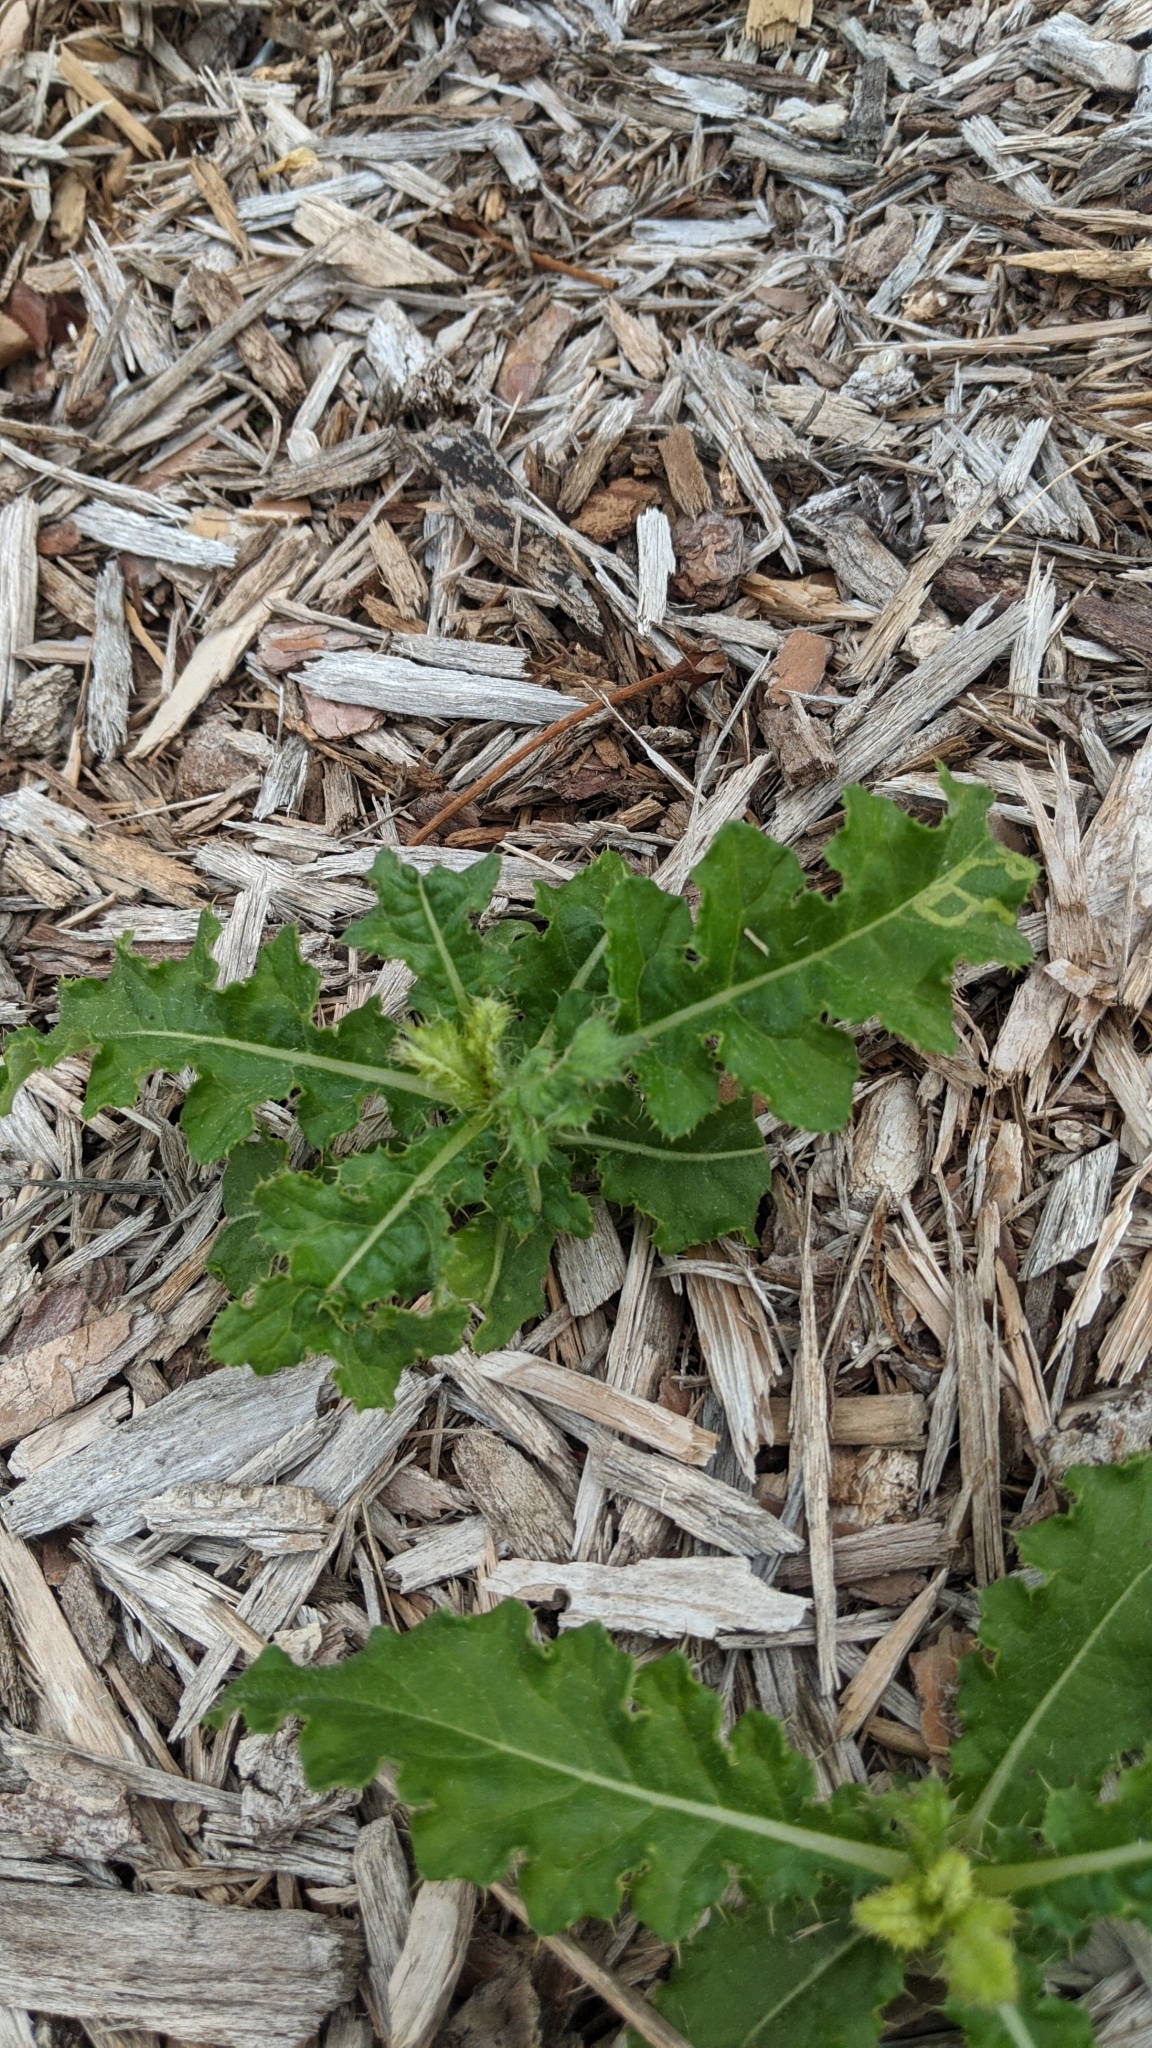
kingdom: Plantae
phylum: Tracheophyta
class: Magnoliopsida
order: Asterales
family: Asteraceae
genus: Cirsium
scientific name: Cirsium arvense
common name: Creeping thistle
